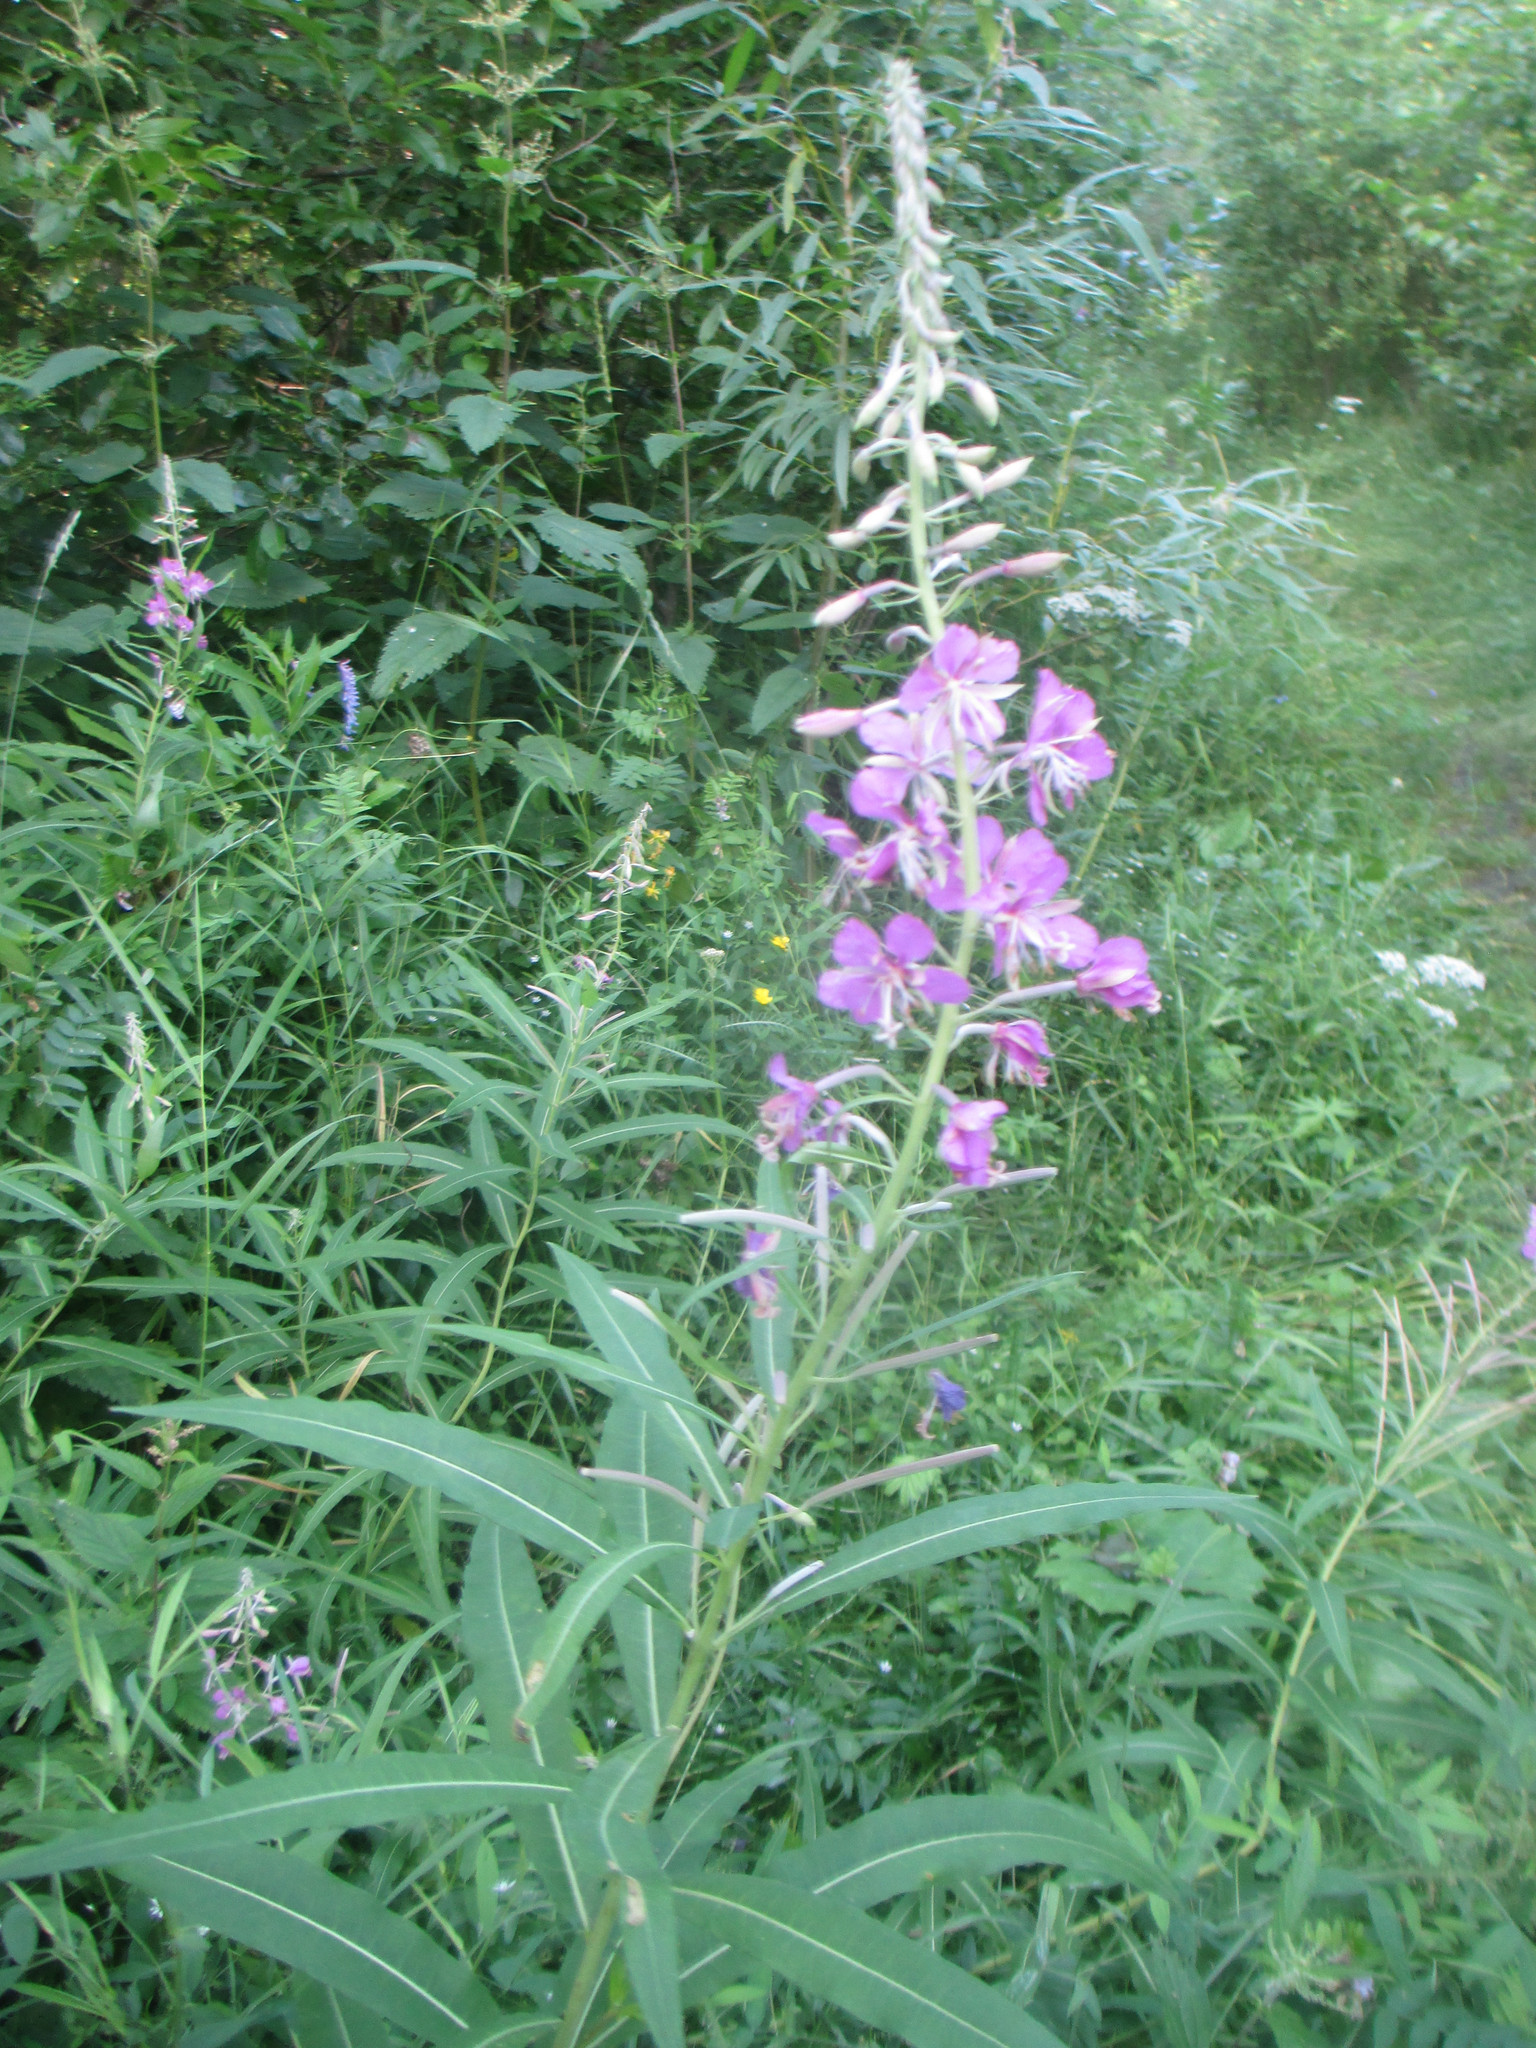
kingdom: Plantae
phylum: Tracheophyta
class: Magnoliopsida
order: Myrtales
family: Onagraceae
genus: Chamaenerion
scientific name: Chamaenerion angustifolium
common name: Fireweed
